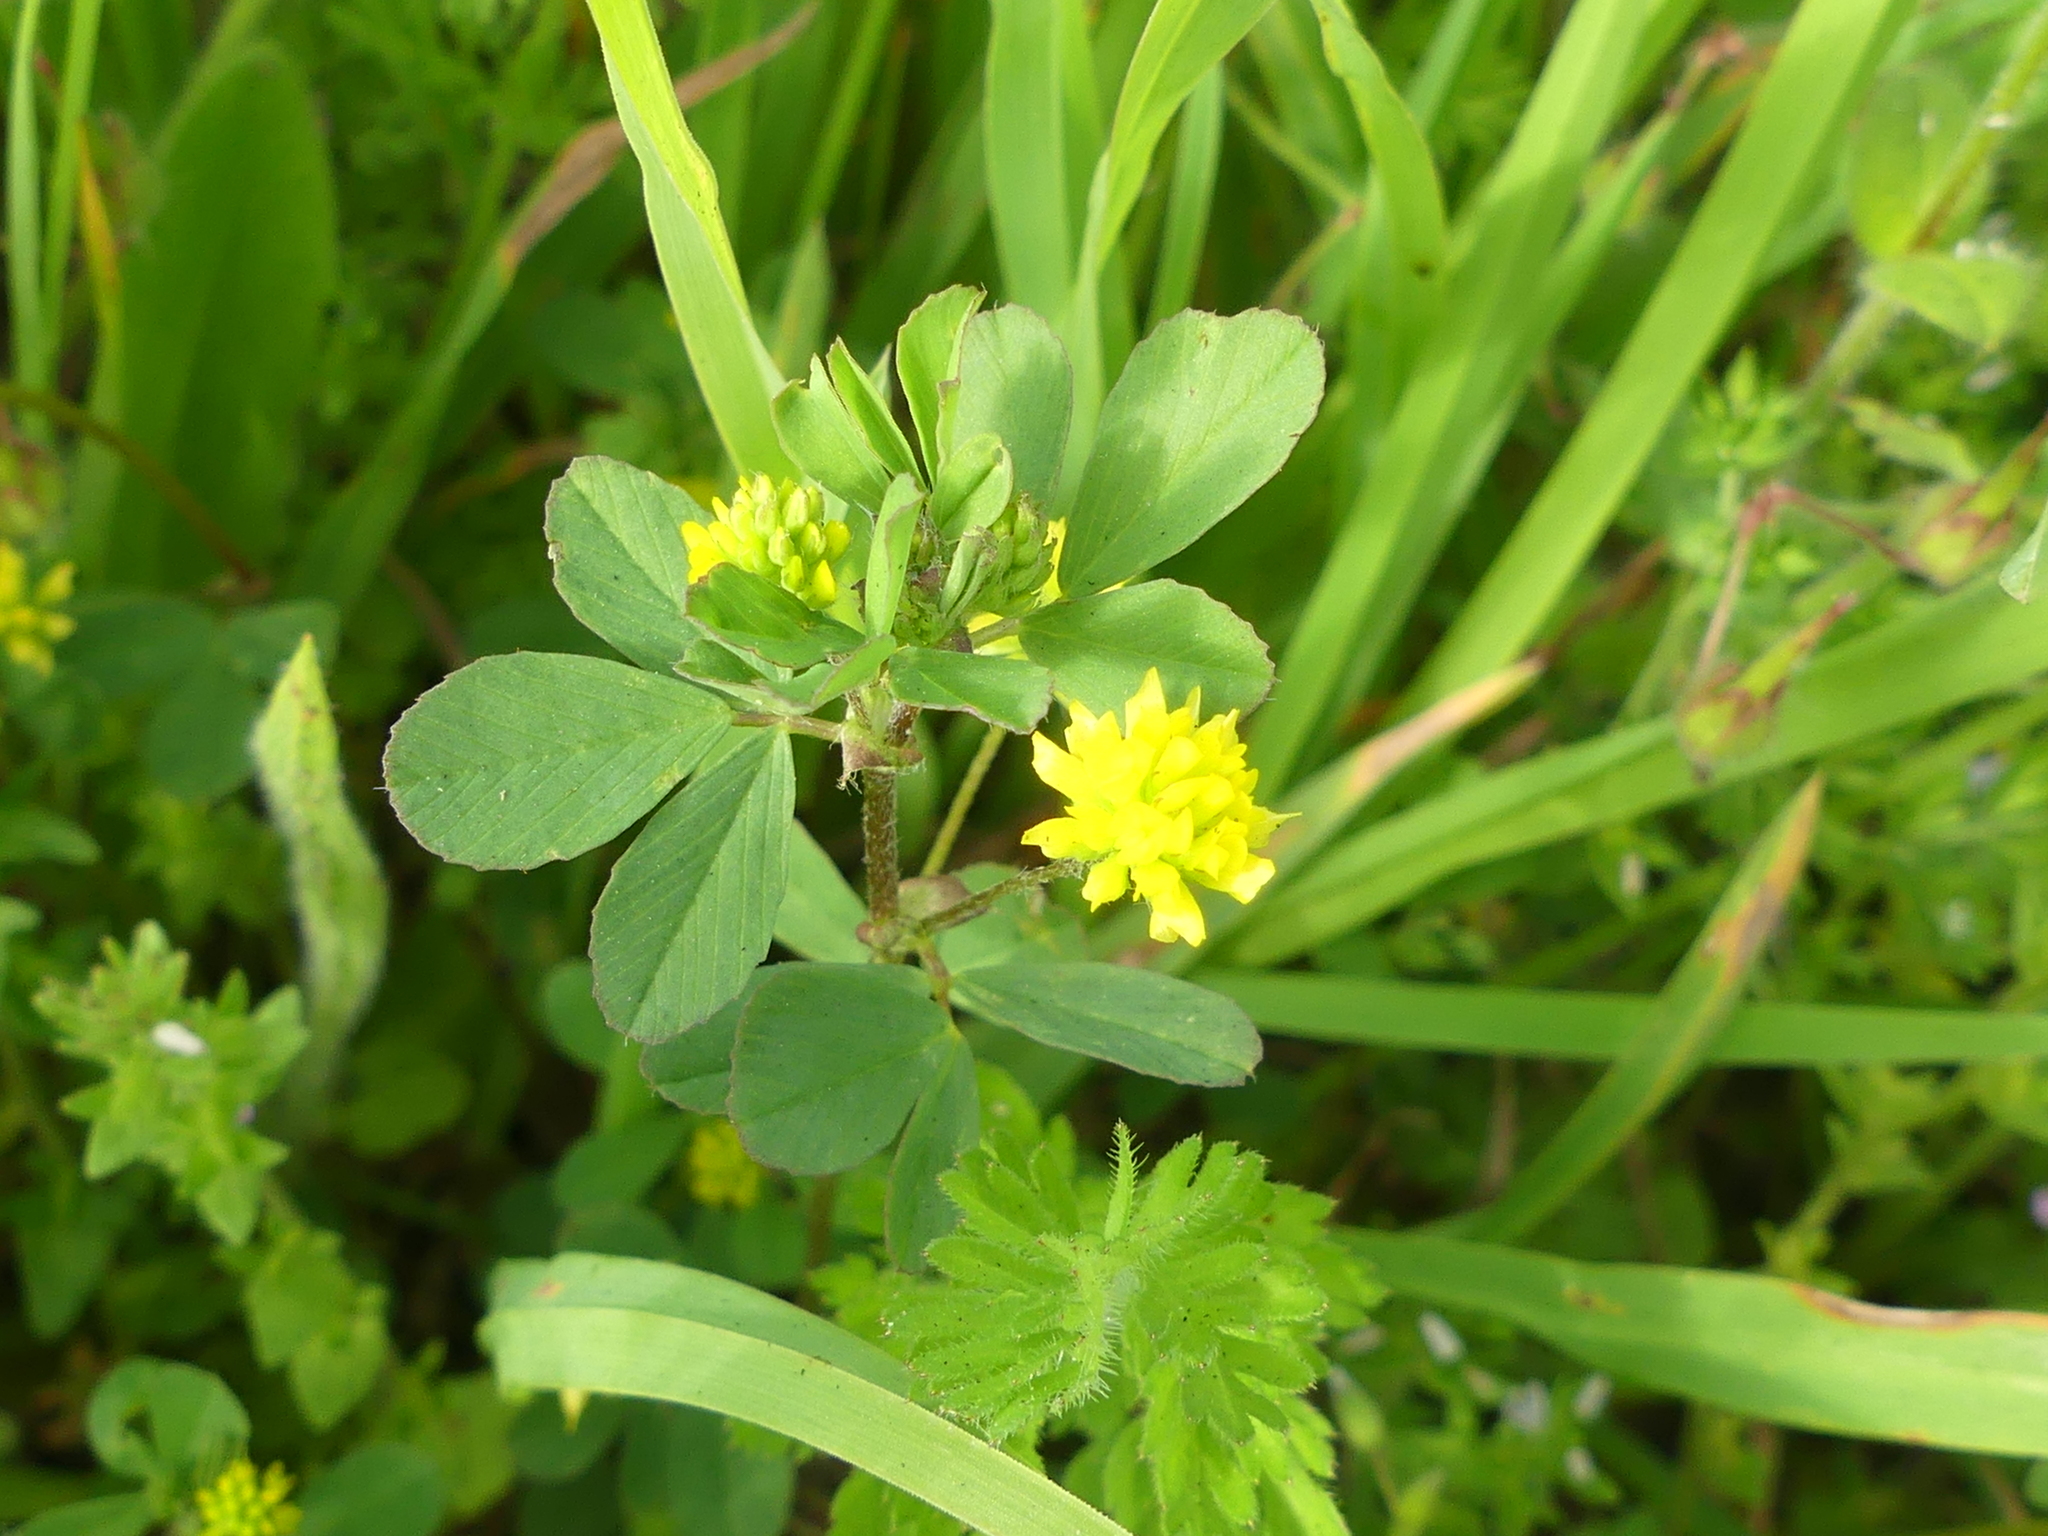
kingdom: Plantae
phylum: Tracheophyta
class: Magnoliopsida
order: Fabales
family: Fabaceae
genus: Trifolium
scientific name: Trifolium dubium
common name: Suckling clover
